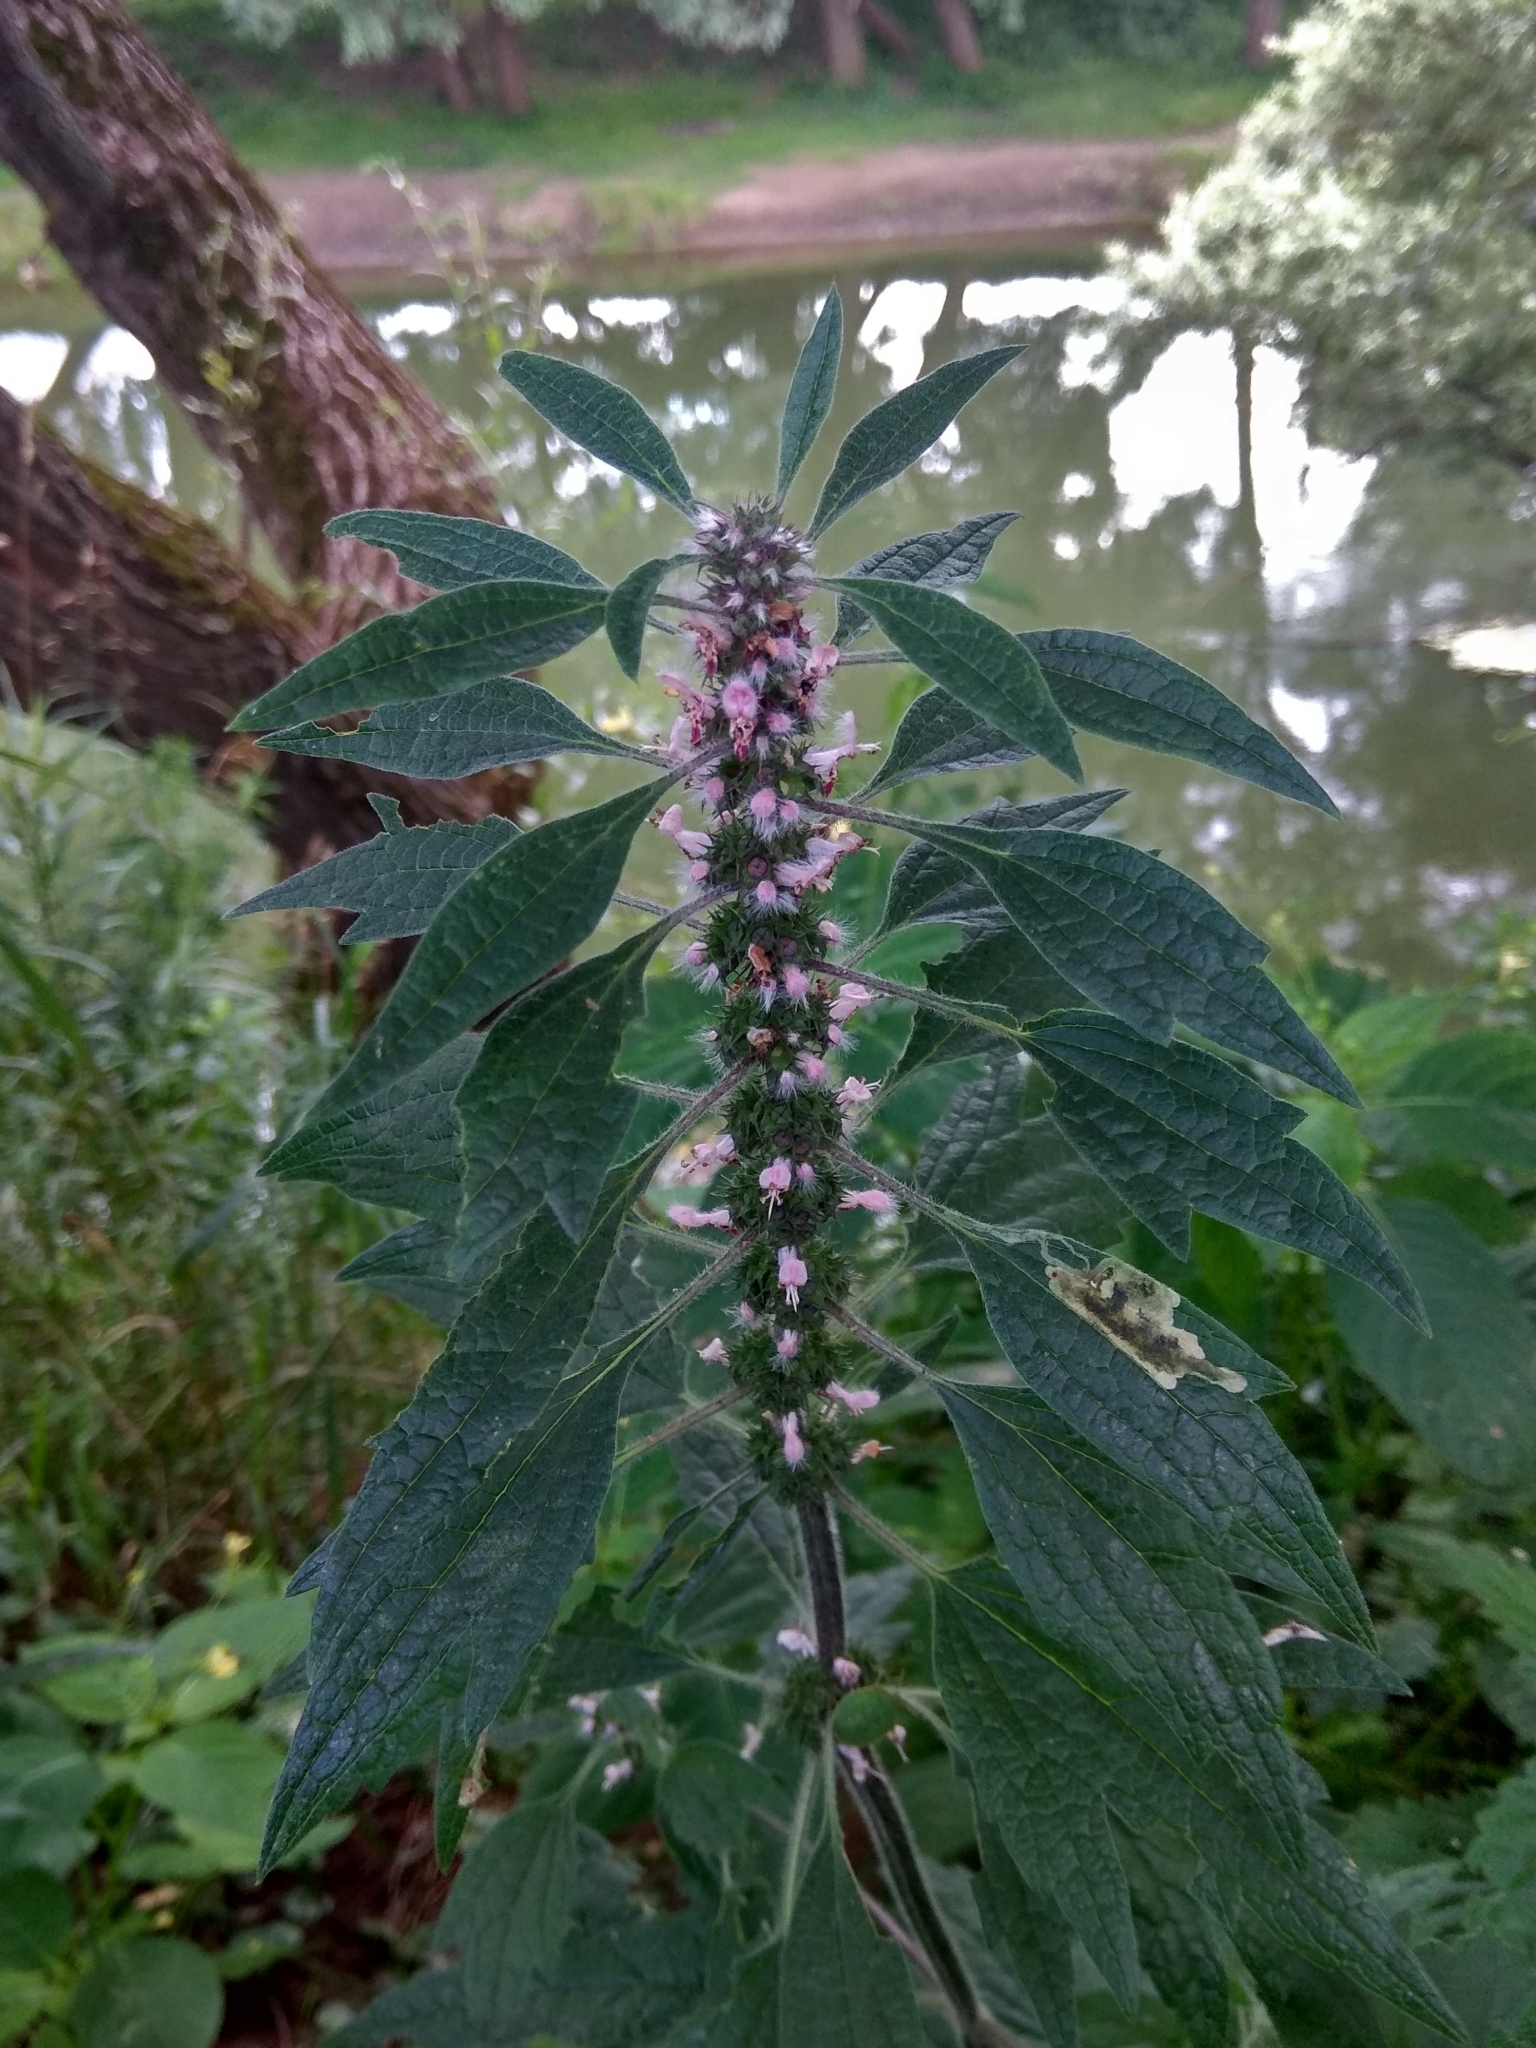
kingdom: Plantae
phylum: Tracheophyta
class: Magnoliopsida
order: Lamiales
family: Lamiaceae
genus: Leonurus
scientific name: Leonurus quinquelobatus
